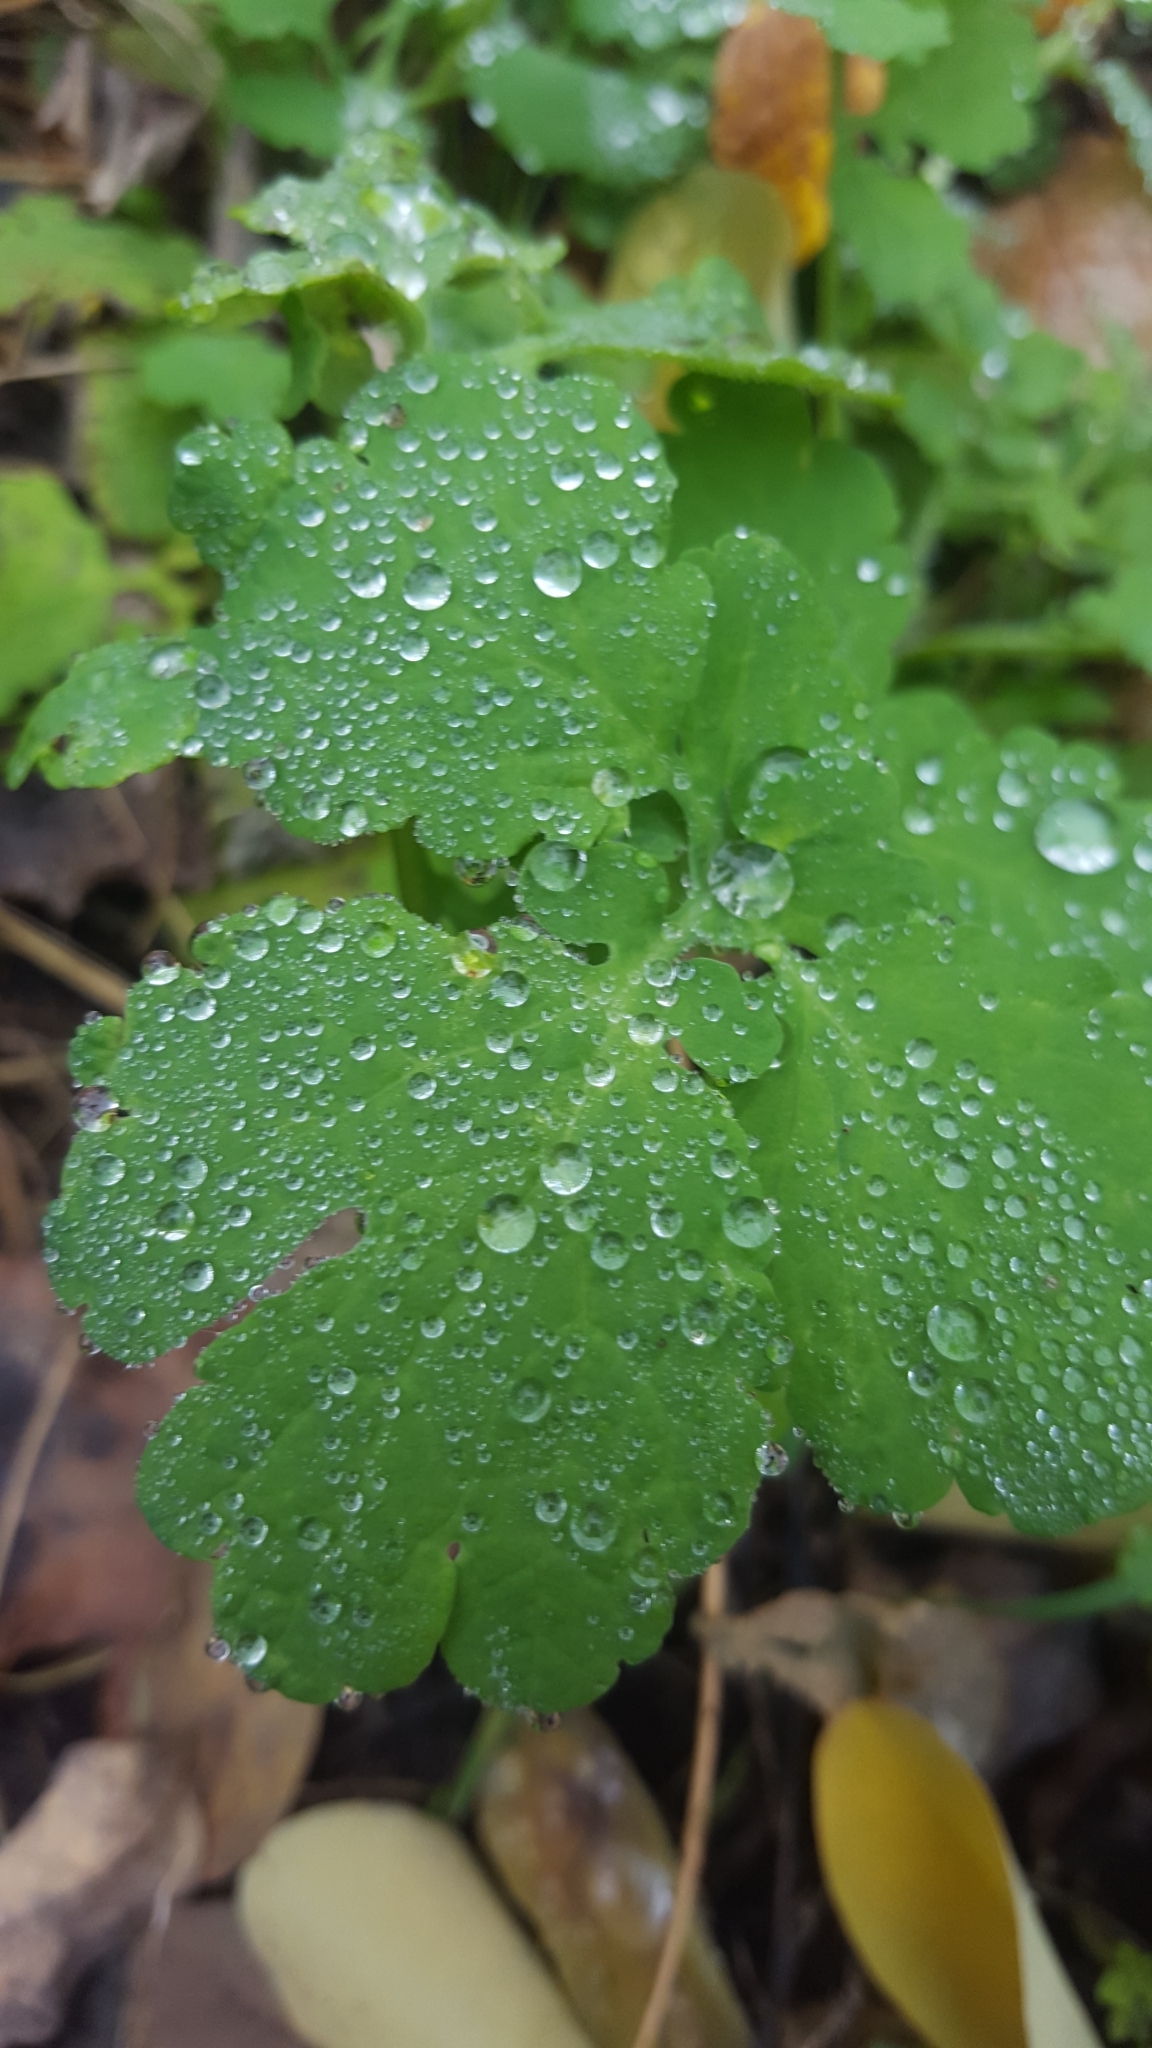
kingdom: Plantae
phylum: Tracheophyta
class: Magnoliopsida
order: Ranunculales
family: Papaveraceae
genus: Chelidonium
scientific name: Chelidonium majus
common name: Greater celandine
